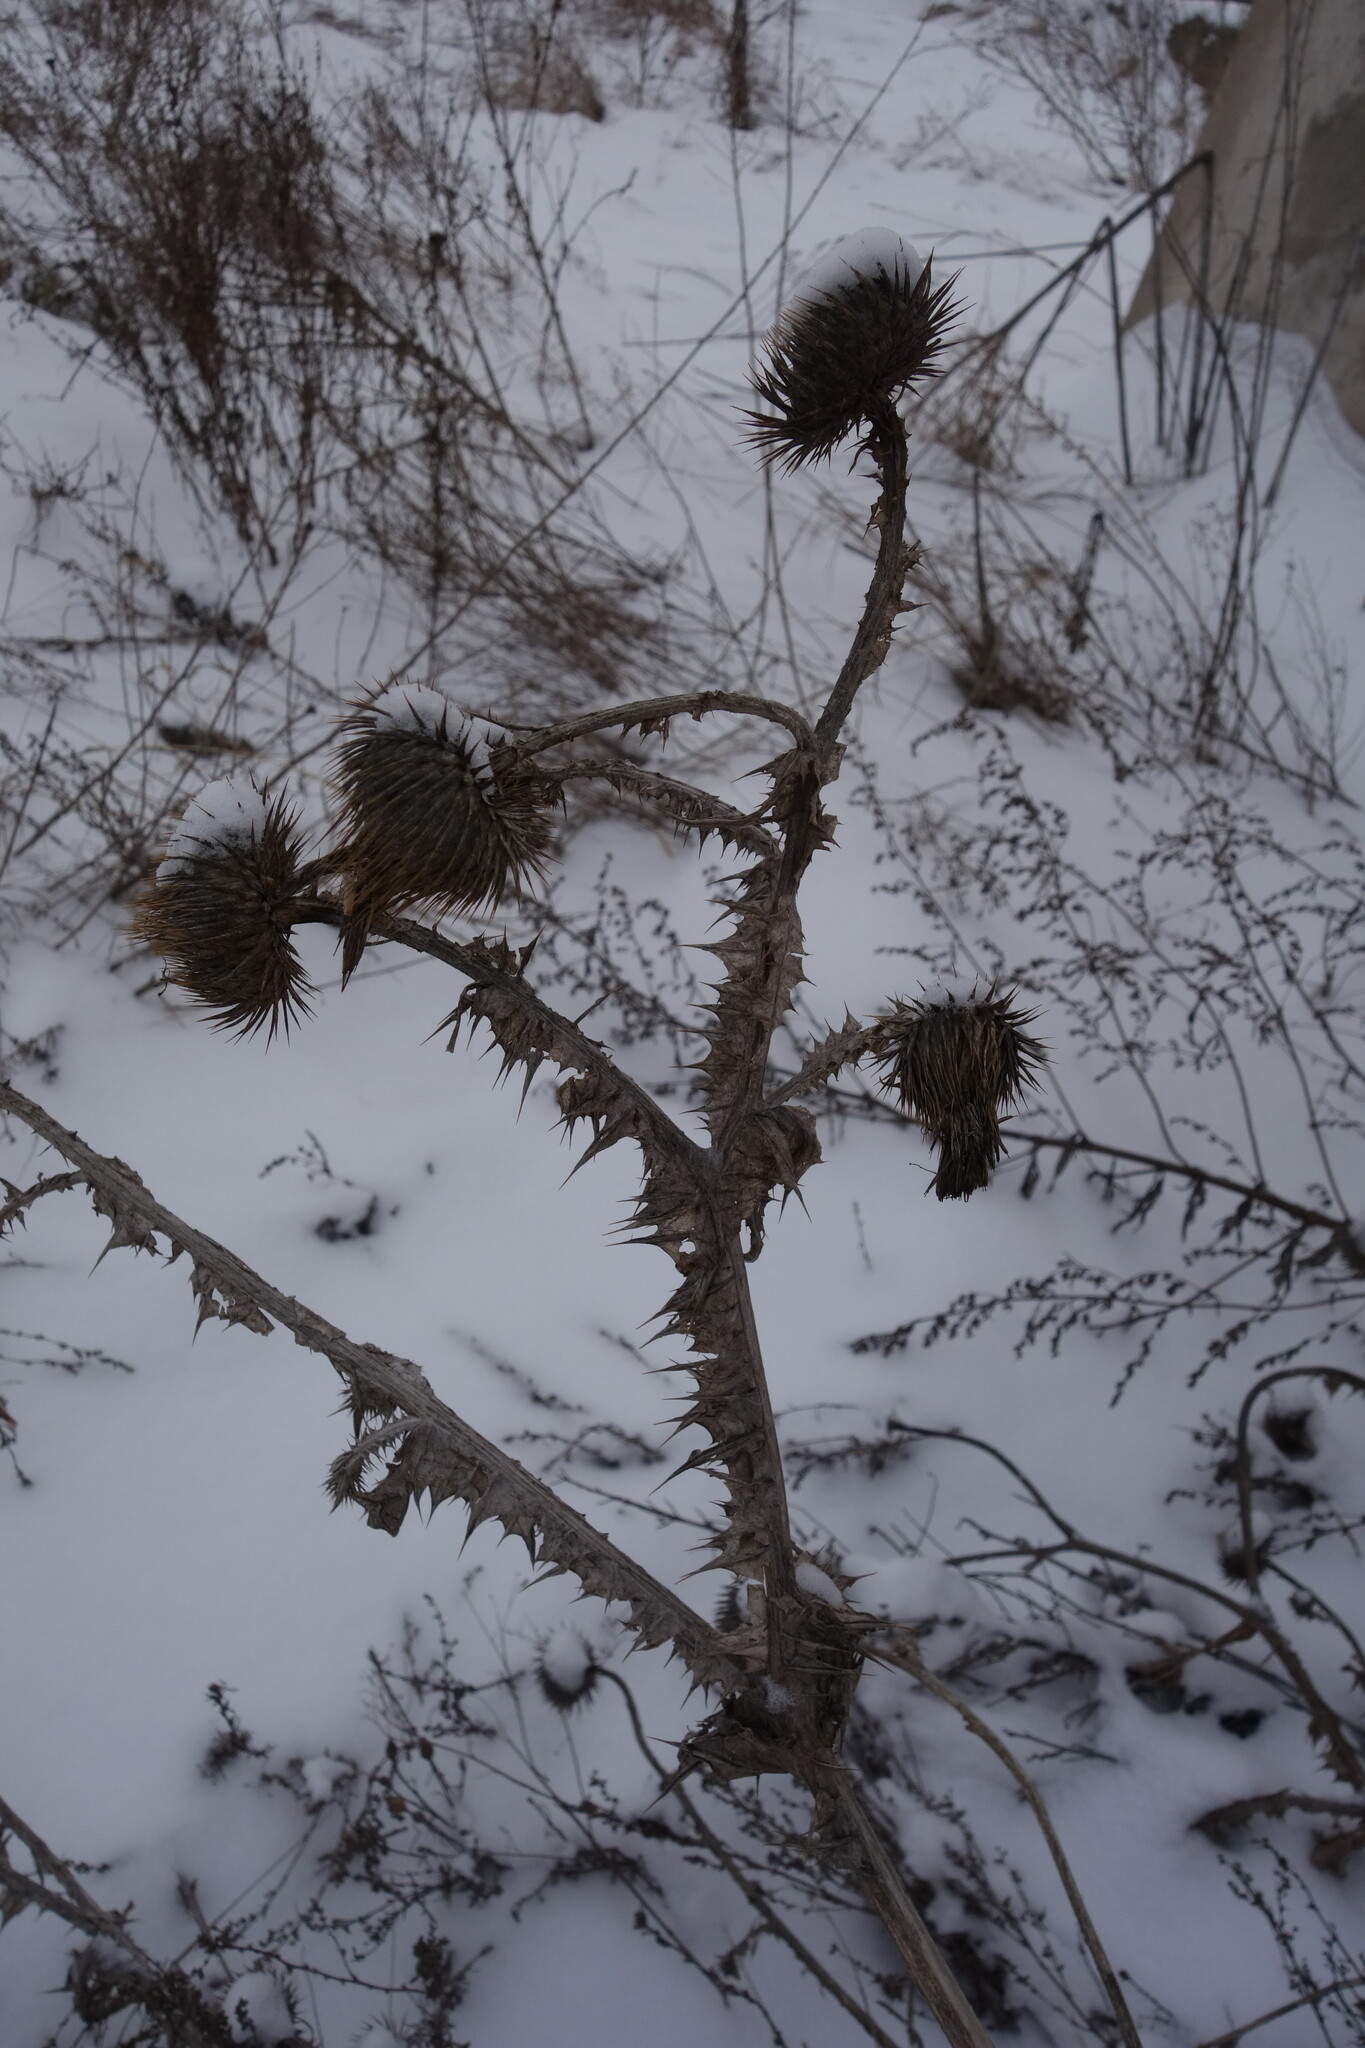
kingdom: Plantae
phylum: Tracheophyta
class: Magnoliopsida
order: Asterales
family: Asteraceae
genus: Onopordum
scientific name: Onopordum acanthium
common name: Scotch thistle
